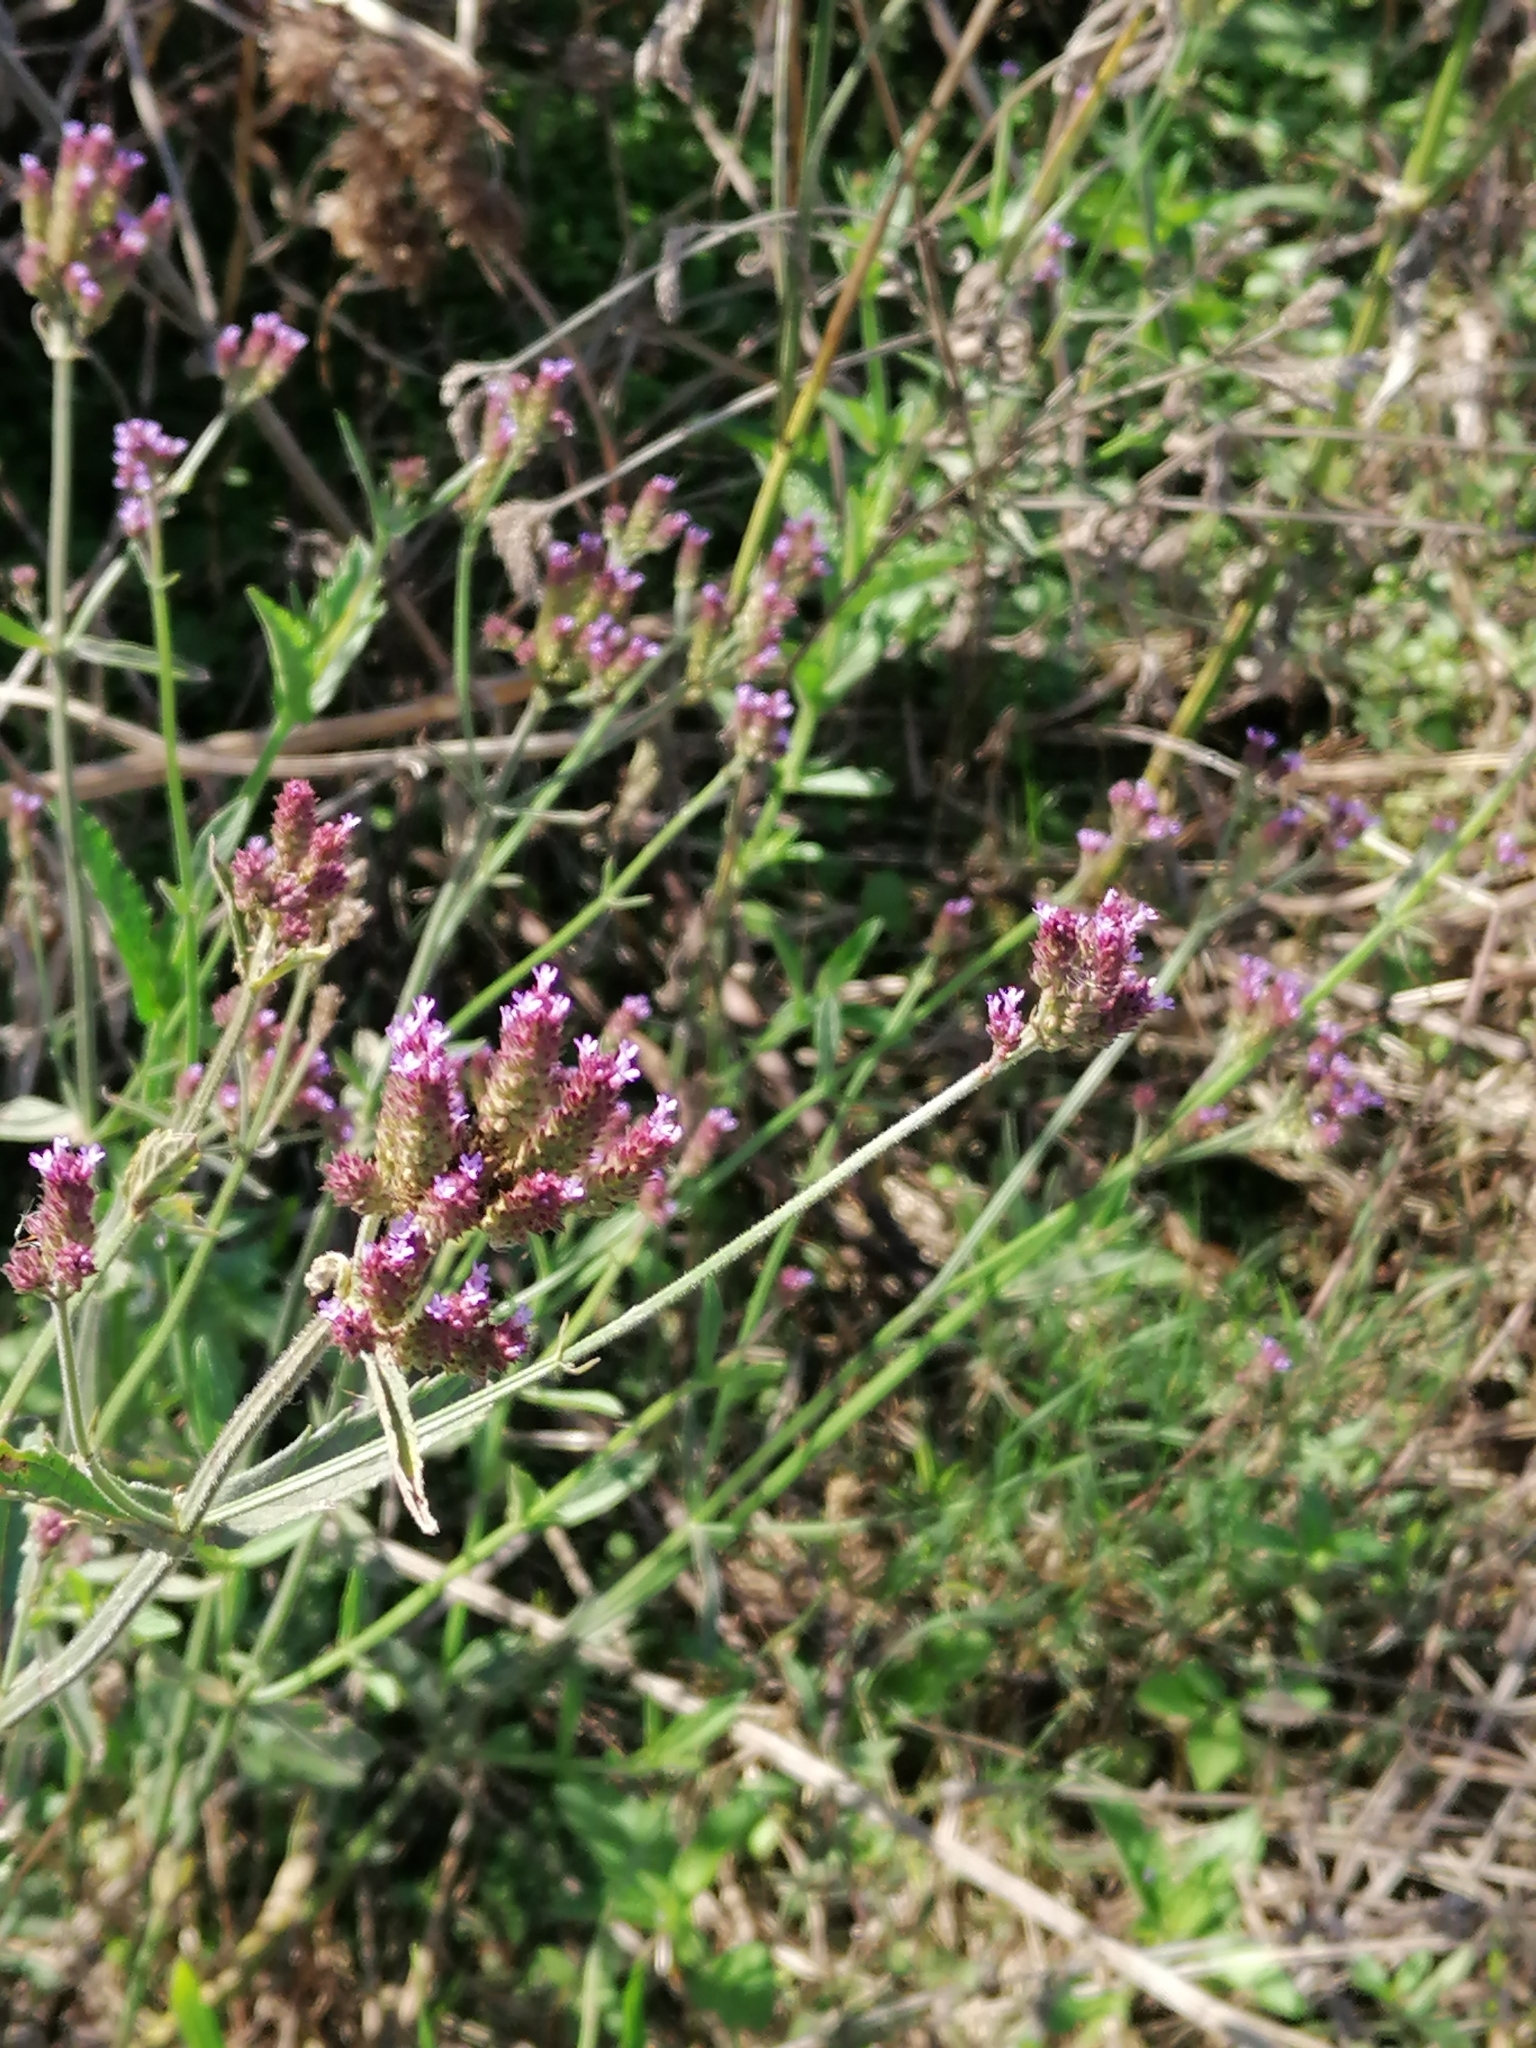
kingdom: Plantae
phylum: Tracheophyta
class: Magnoliopsida
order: Lamiales
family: Verbenaceae
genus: Verbena
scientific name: Verbena bonariensis
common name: Purpletop vervain
